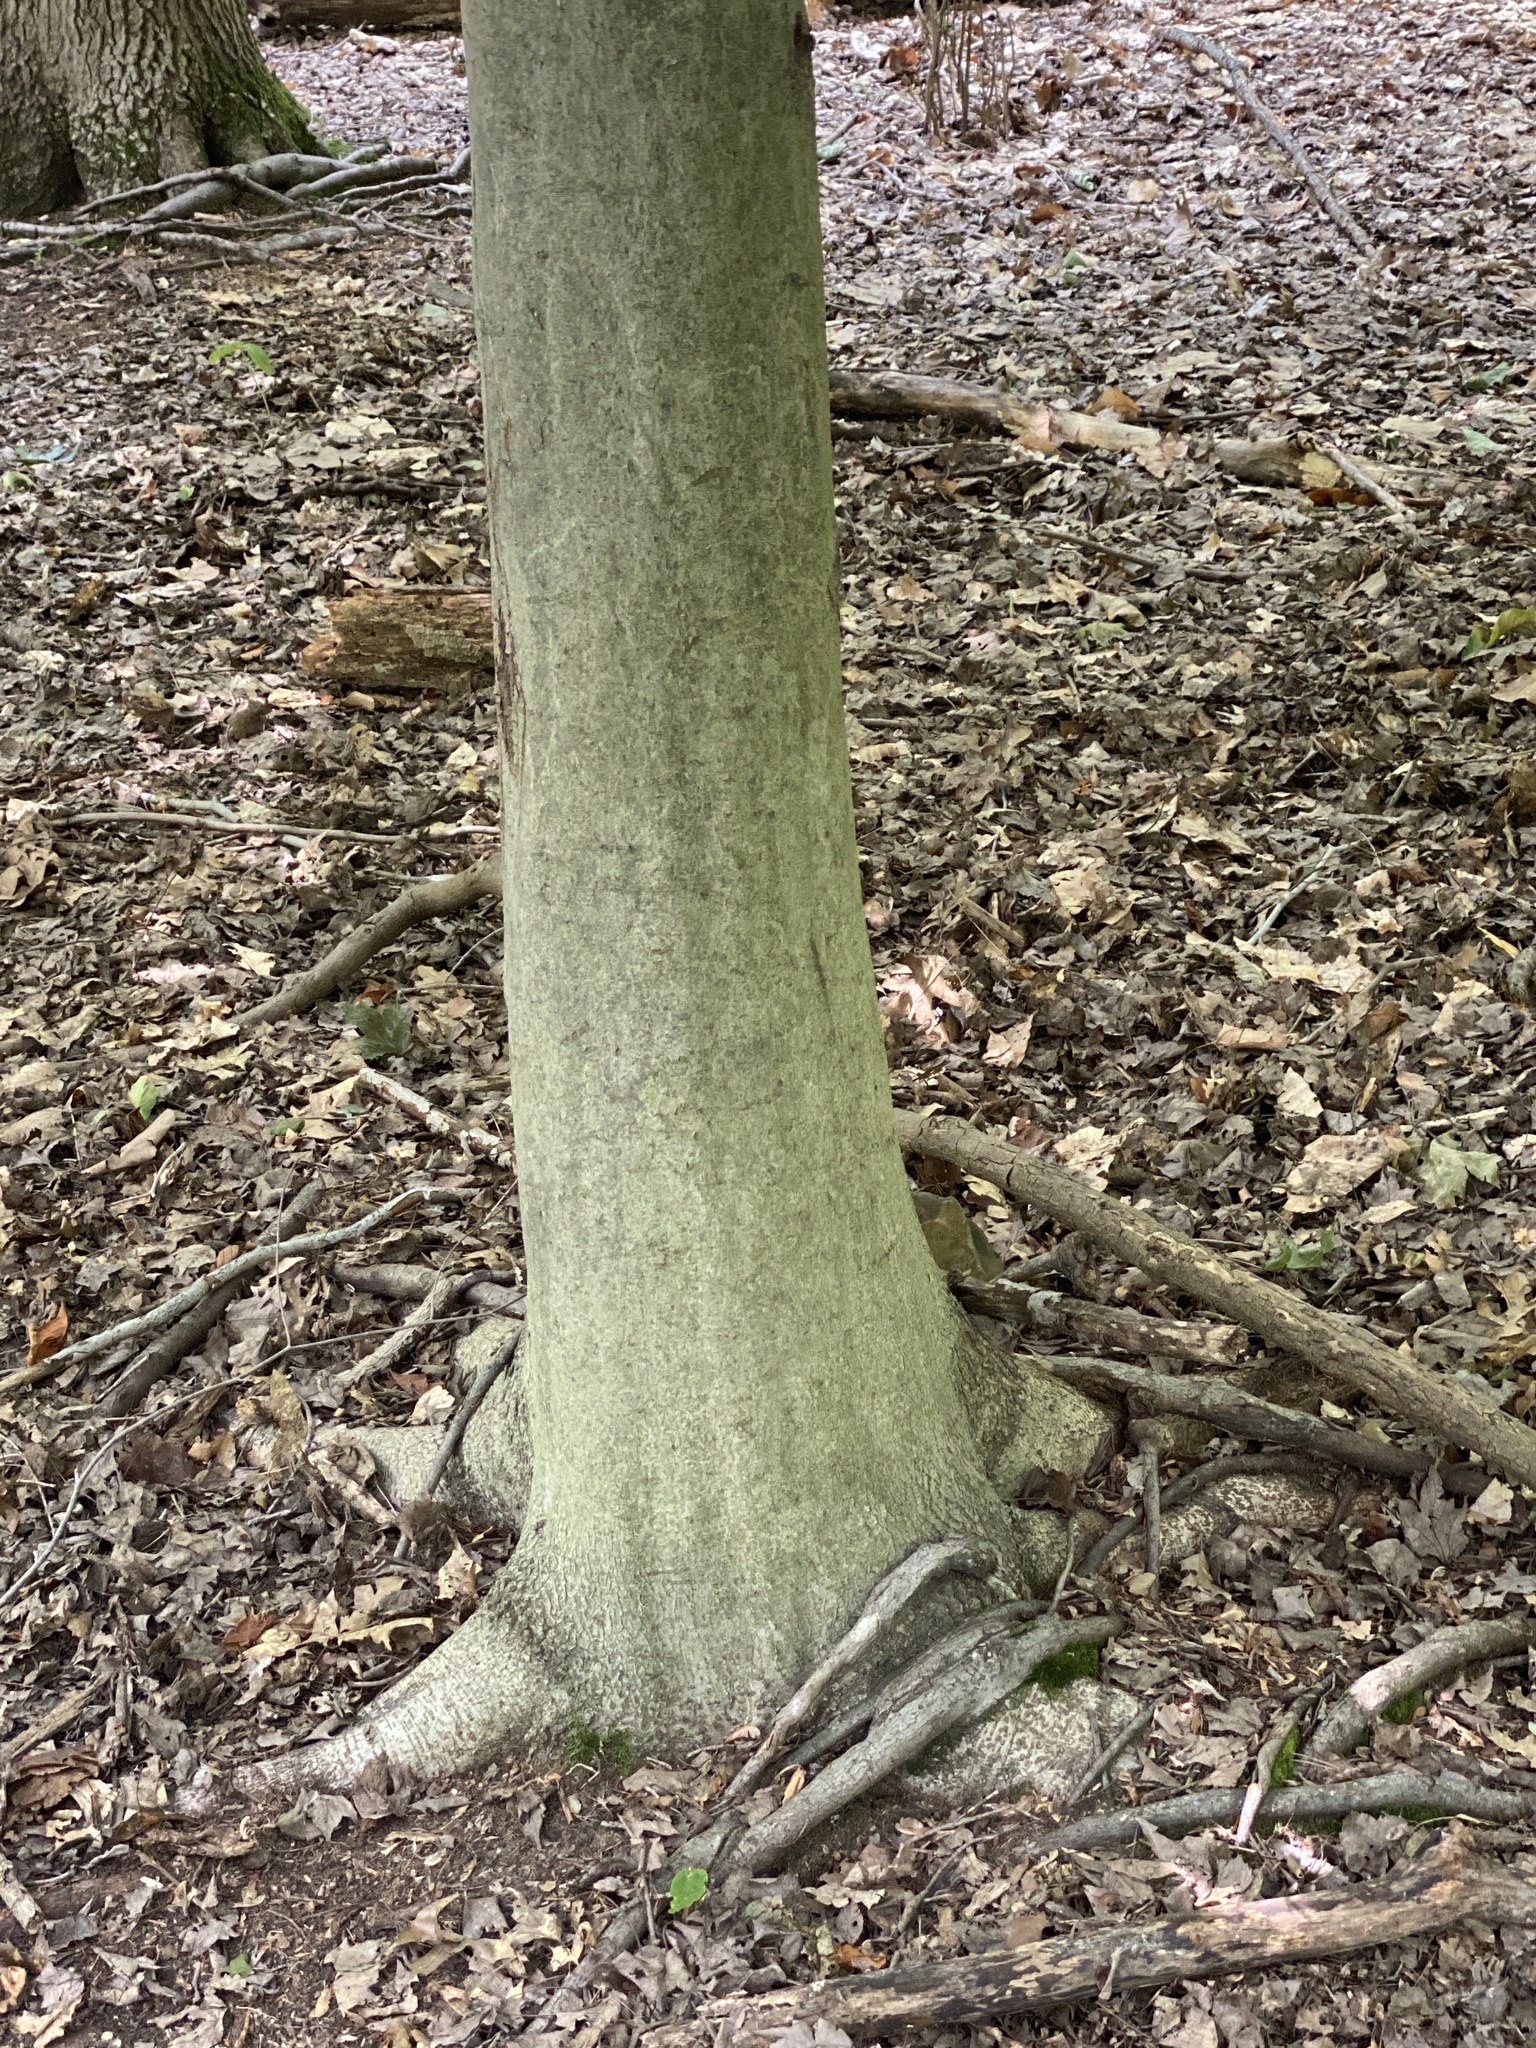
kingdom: Plantae
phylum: Tracheophyta
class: Magnoliopsida
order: Fagales
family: Fagaceae
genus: Fagus
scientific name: Fagus grandifolia
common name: American beech
